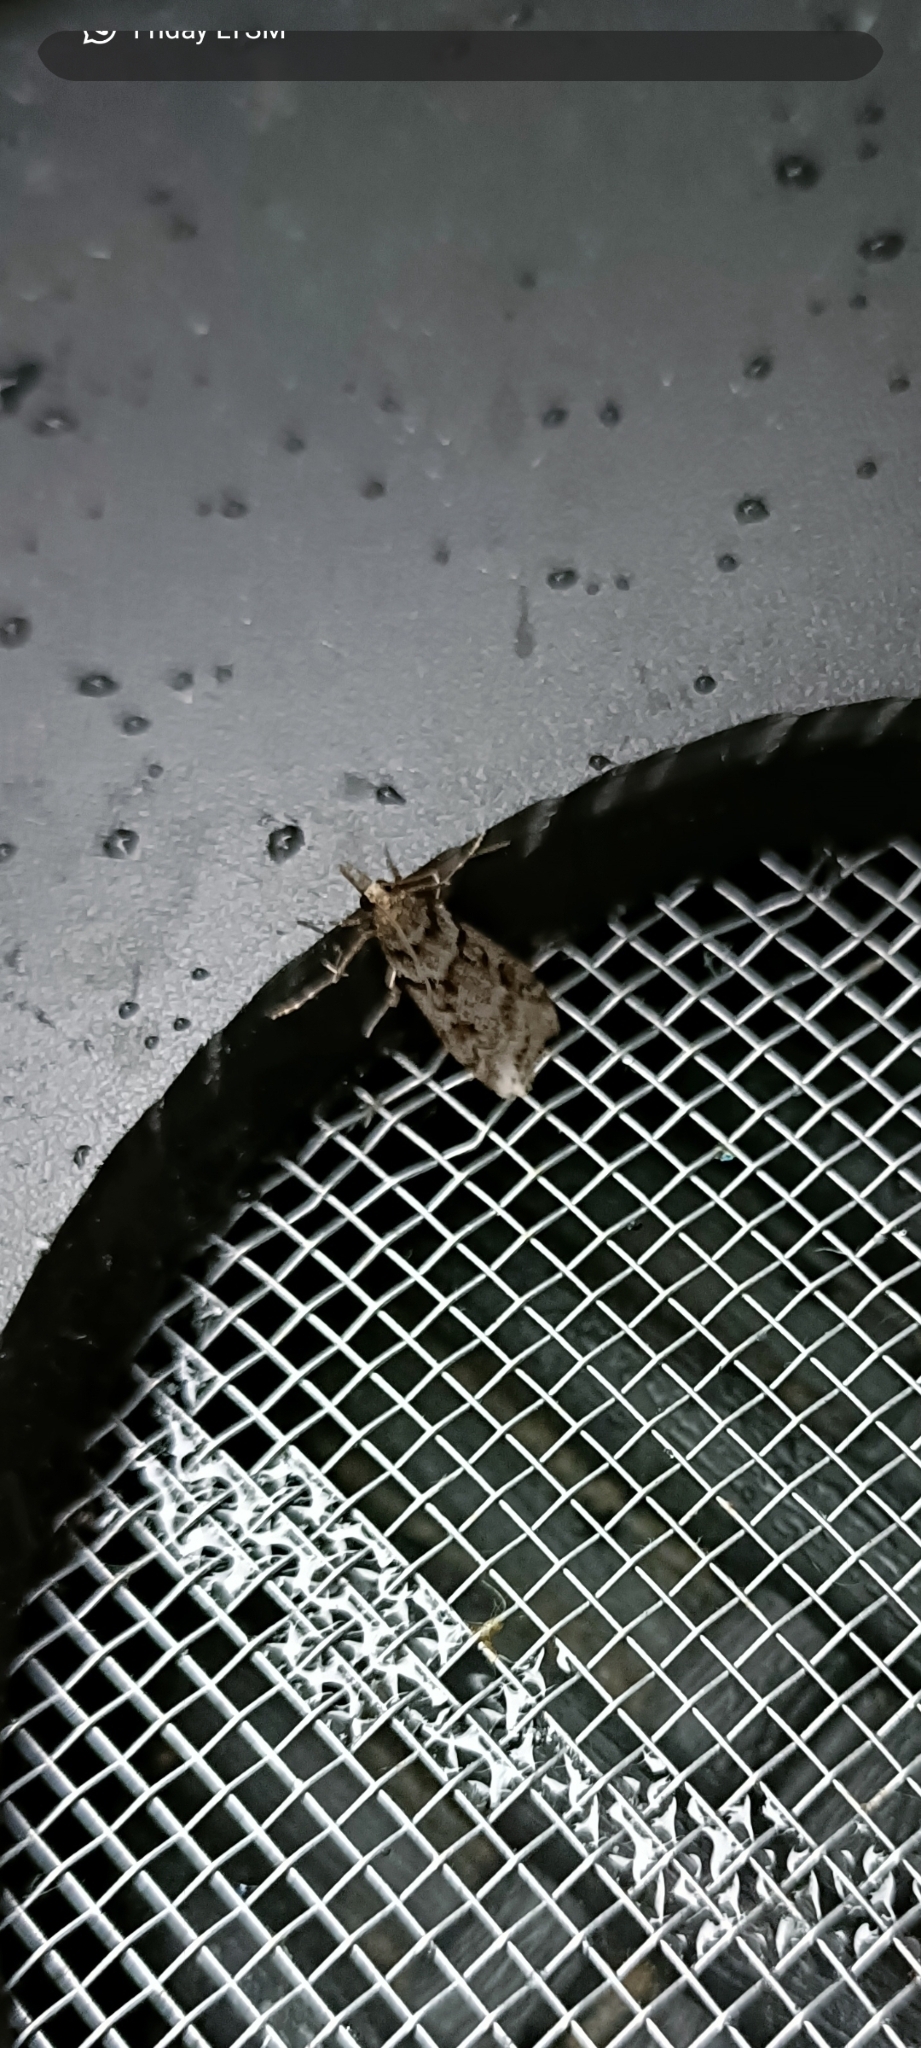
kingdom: Animalia
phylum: Arthropoda
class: Insecta
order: Lepidoptera
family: Crambidae
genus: Eudonia
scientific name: Eudonia angustea
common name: Narrow-winged grey
